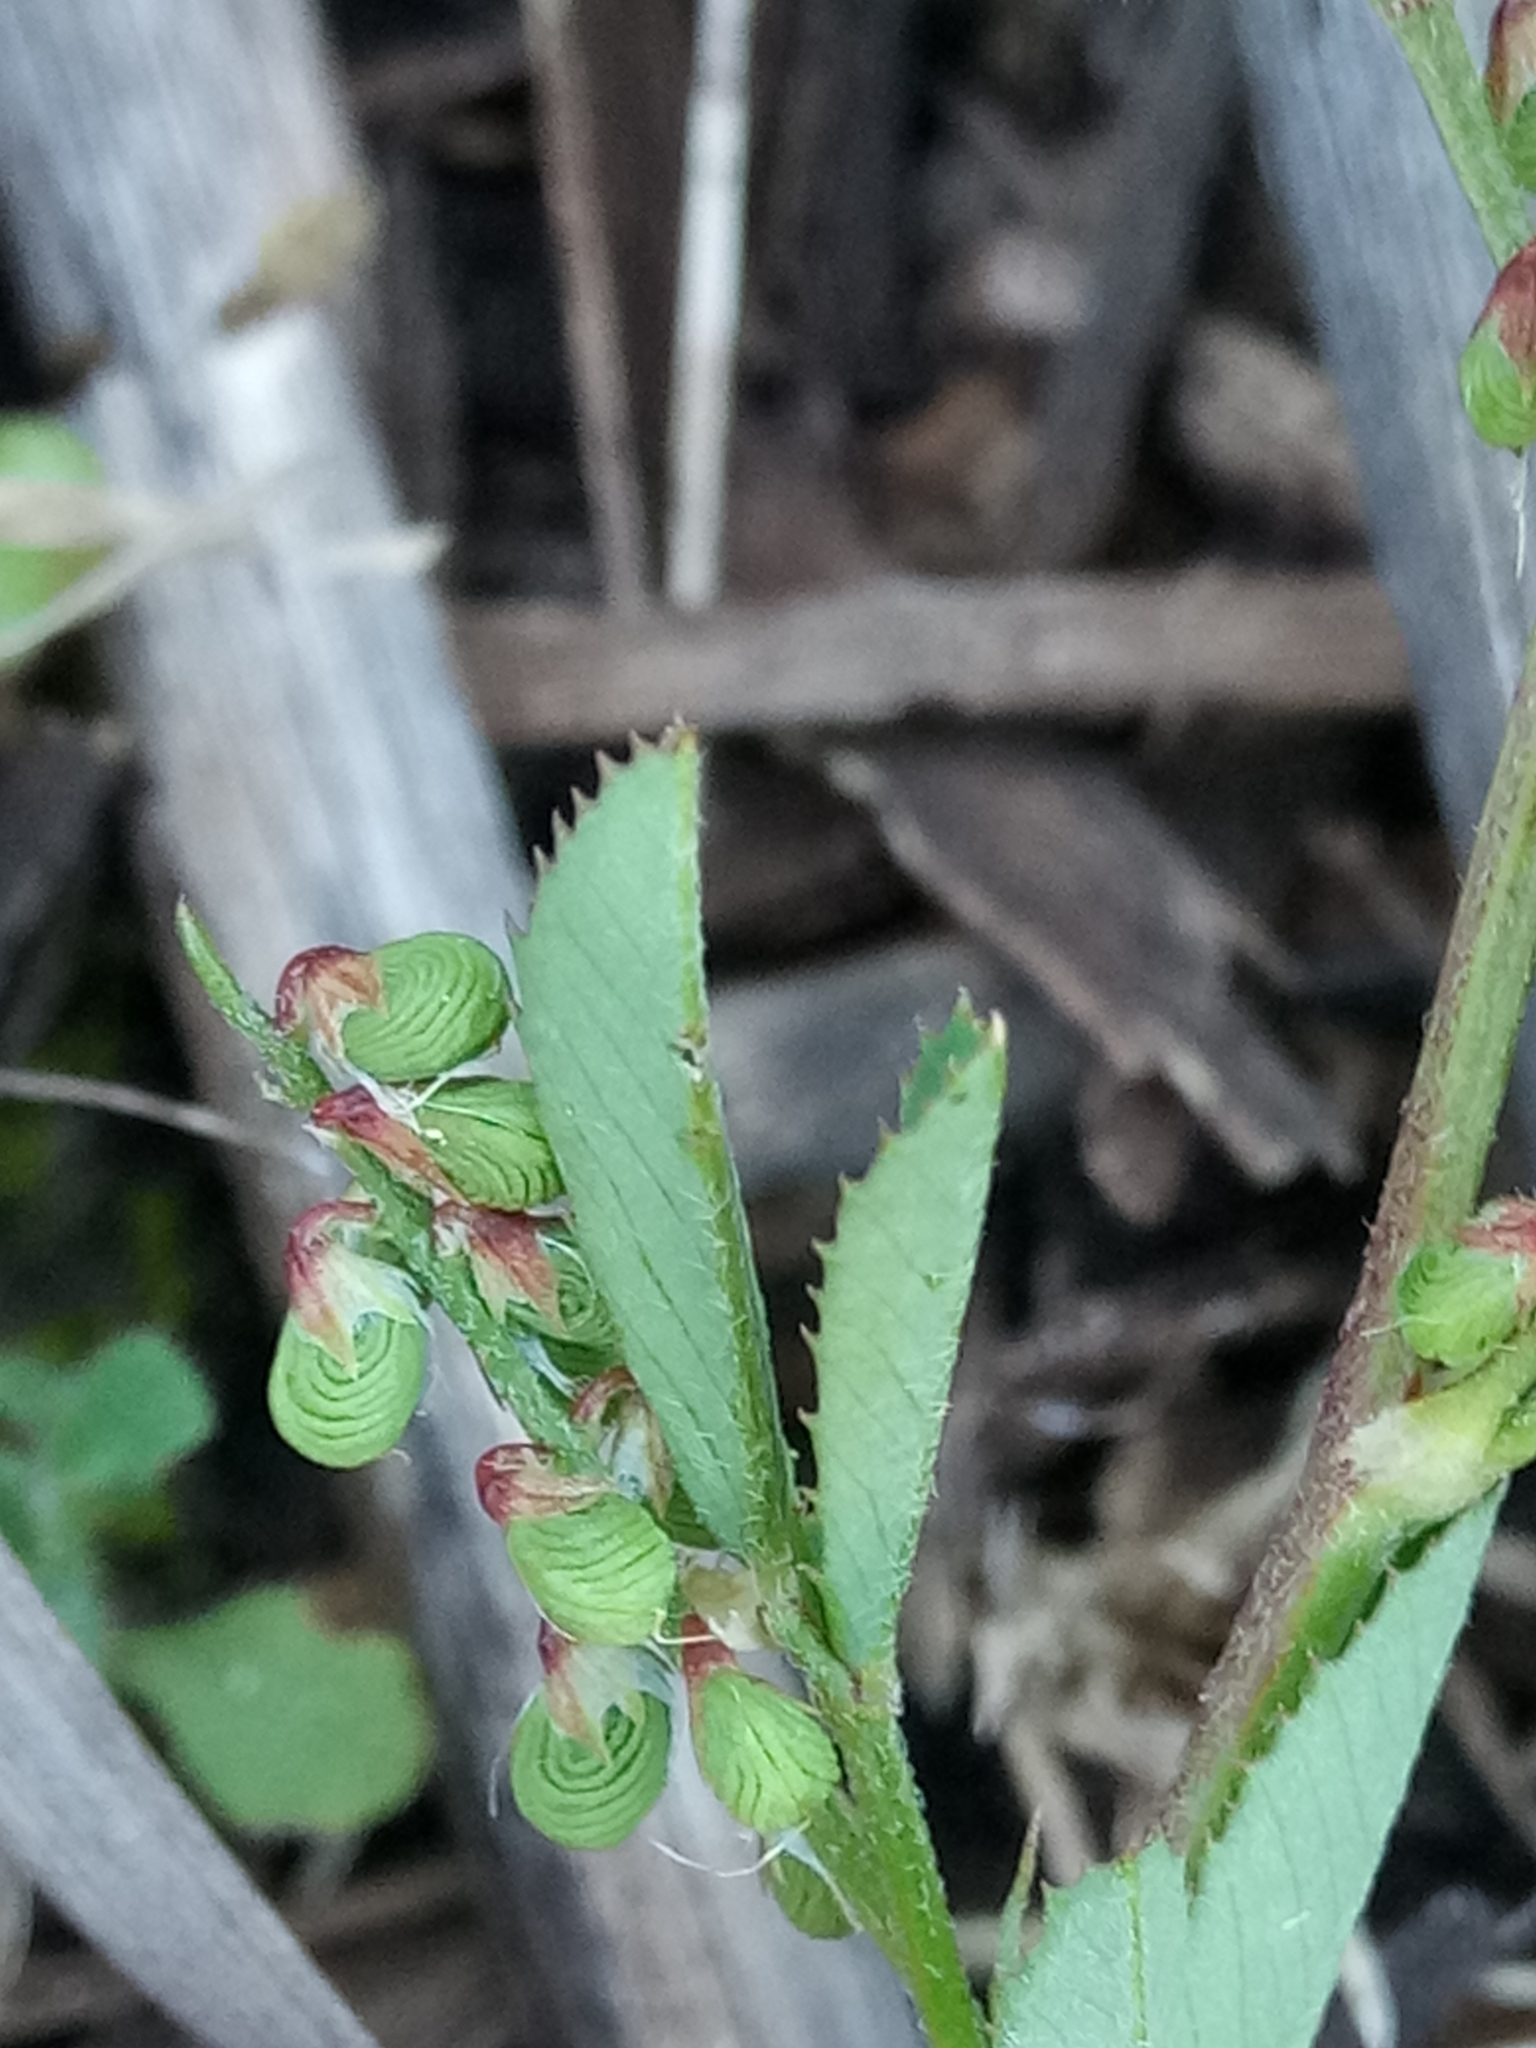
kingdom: Plantae
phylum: Tracheophyta
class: Magnoliopsida
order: Fabales
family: Fabaceae
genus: Melilotus
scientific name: Melilotus sulcatus
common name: Furrowed melilot
